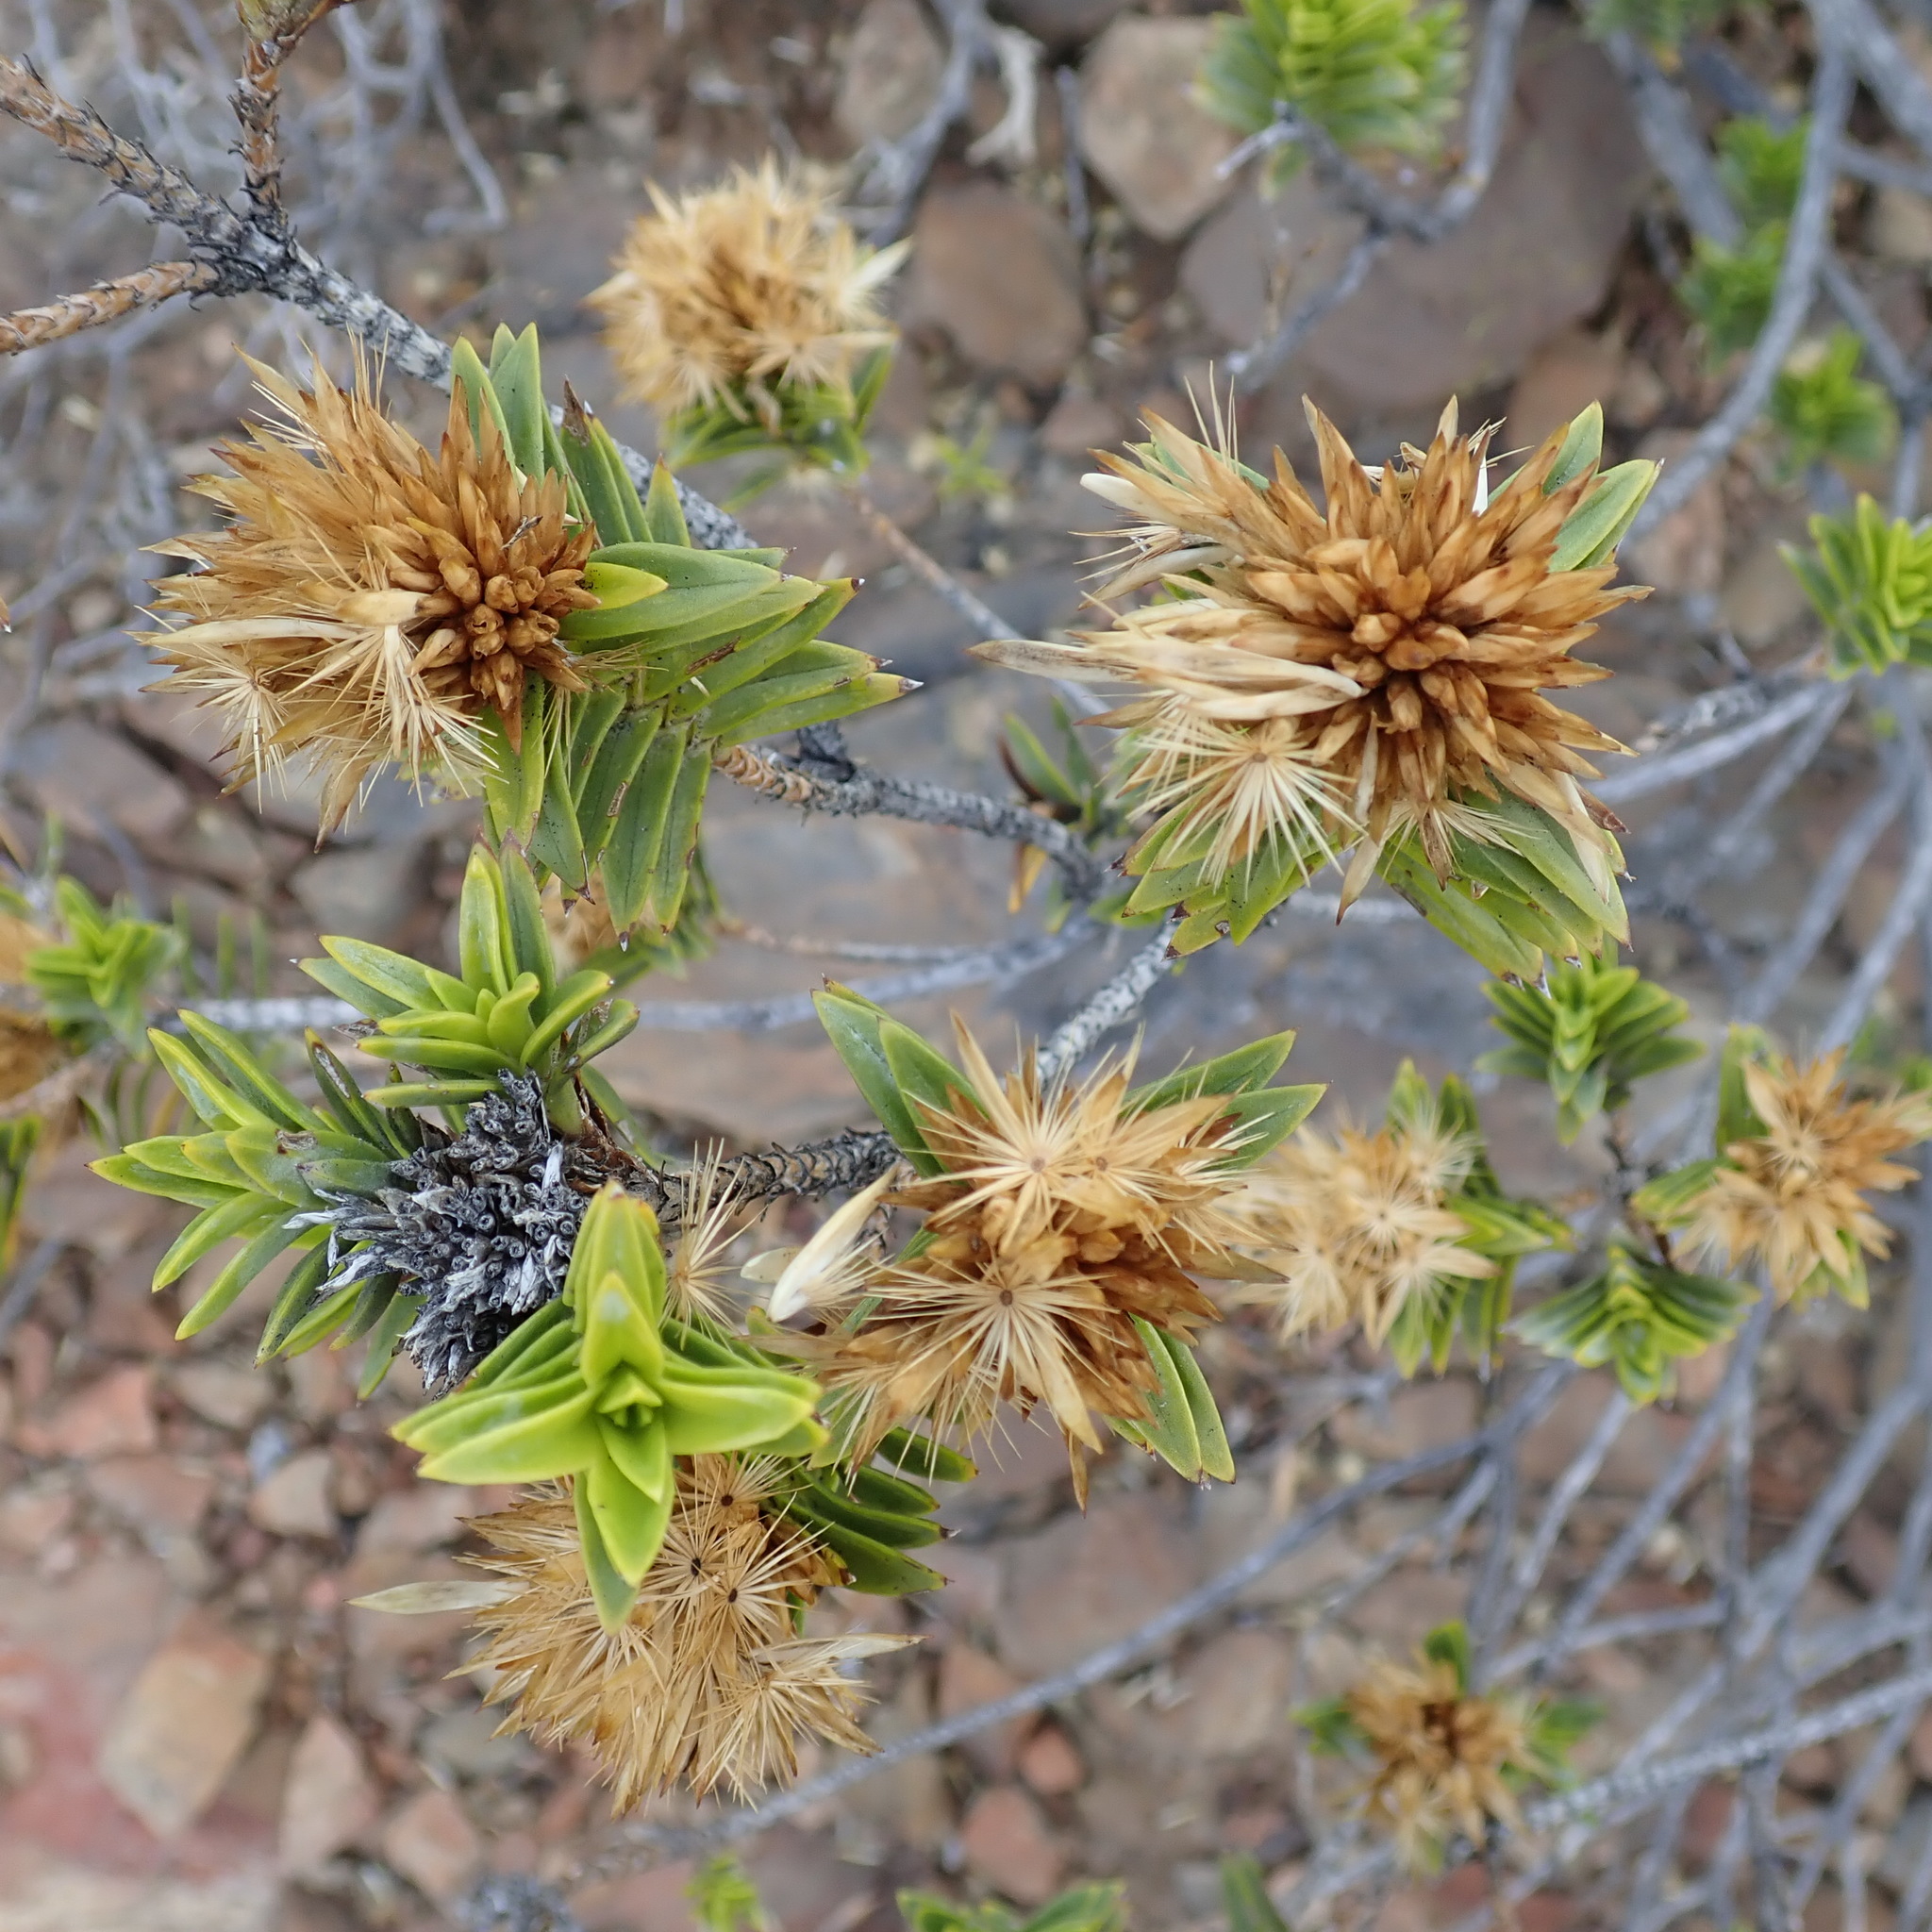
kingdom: Plantae
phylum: Tracheophyta
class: Magnoliopsida
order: Asterales
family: Asteraceae
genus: Pteronia
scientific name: Pteronia fasciculata
